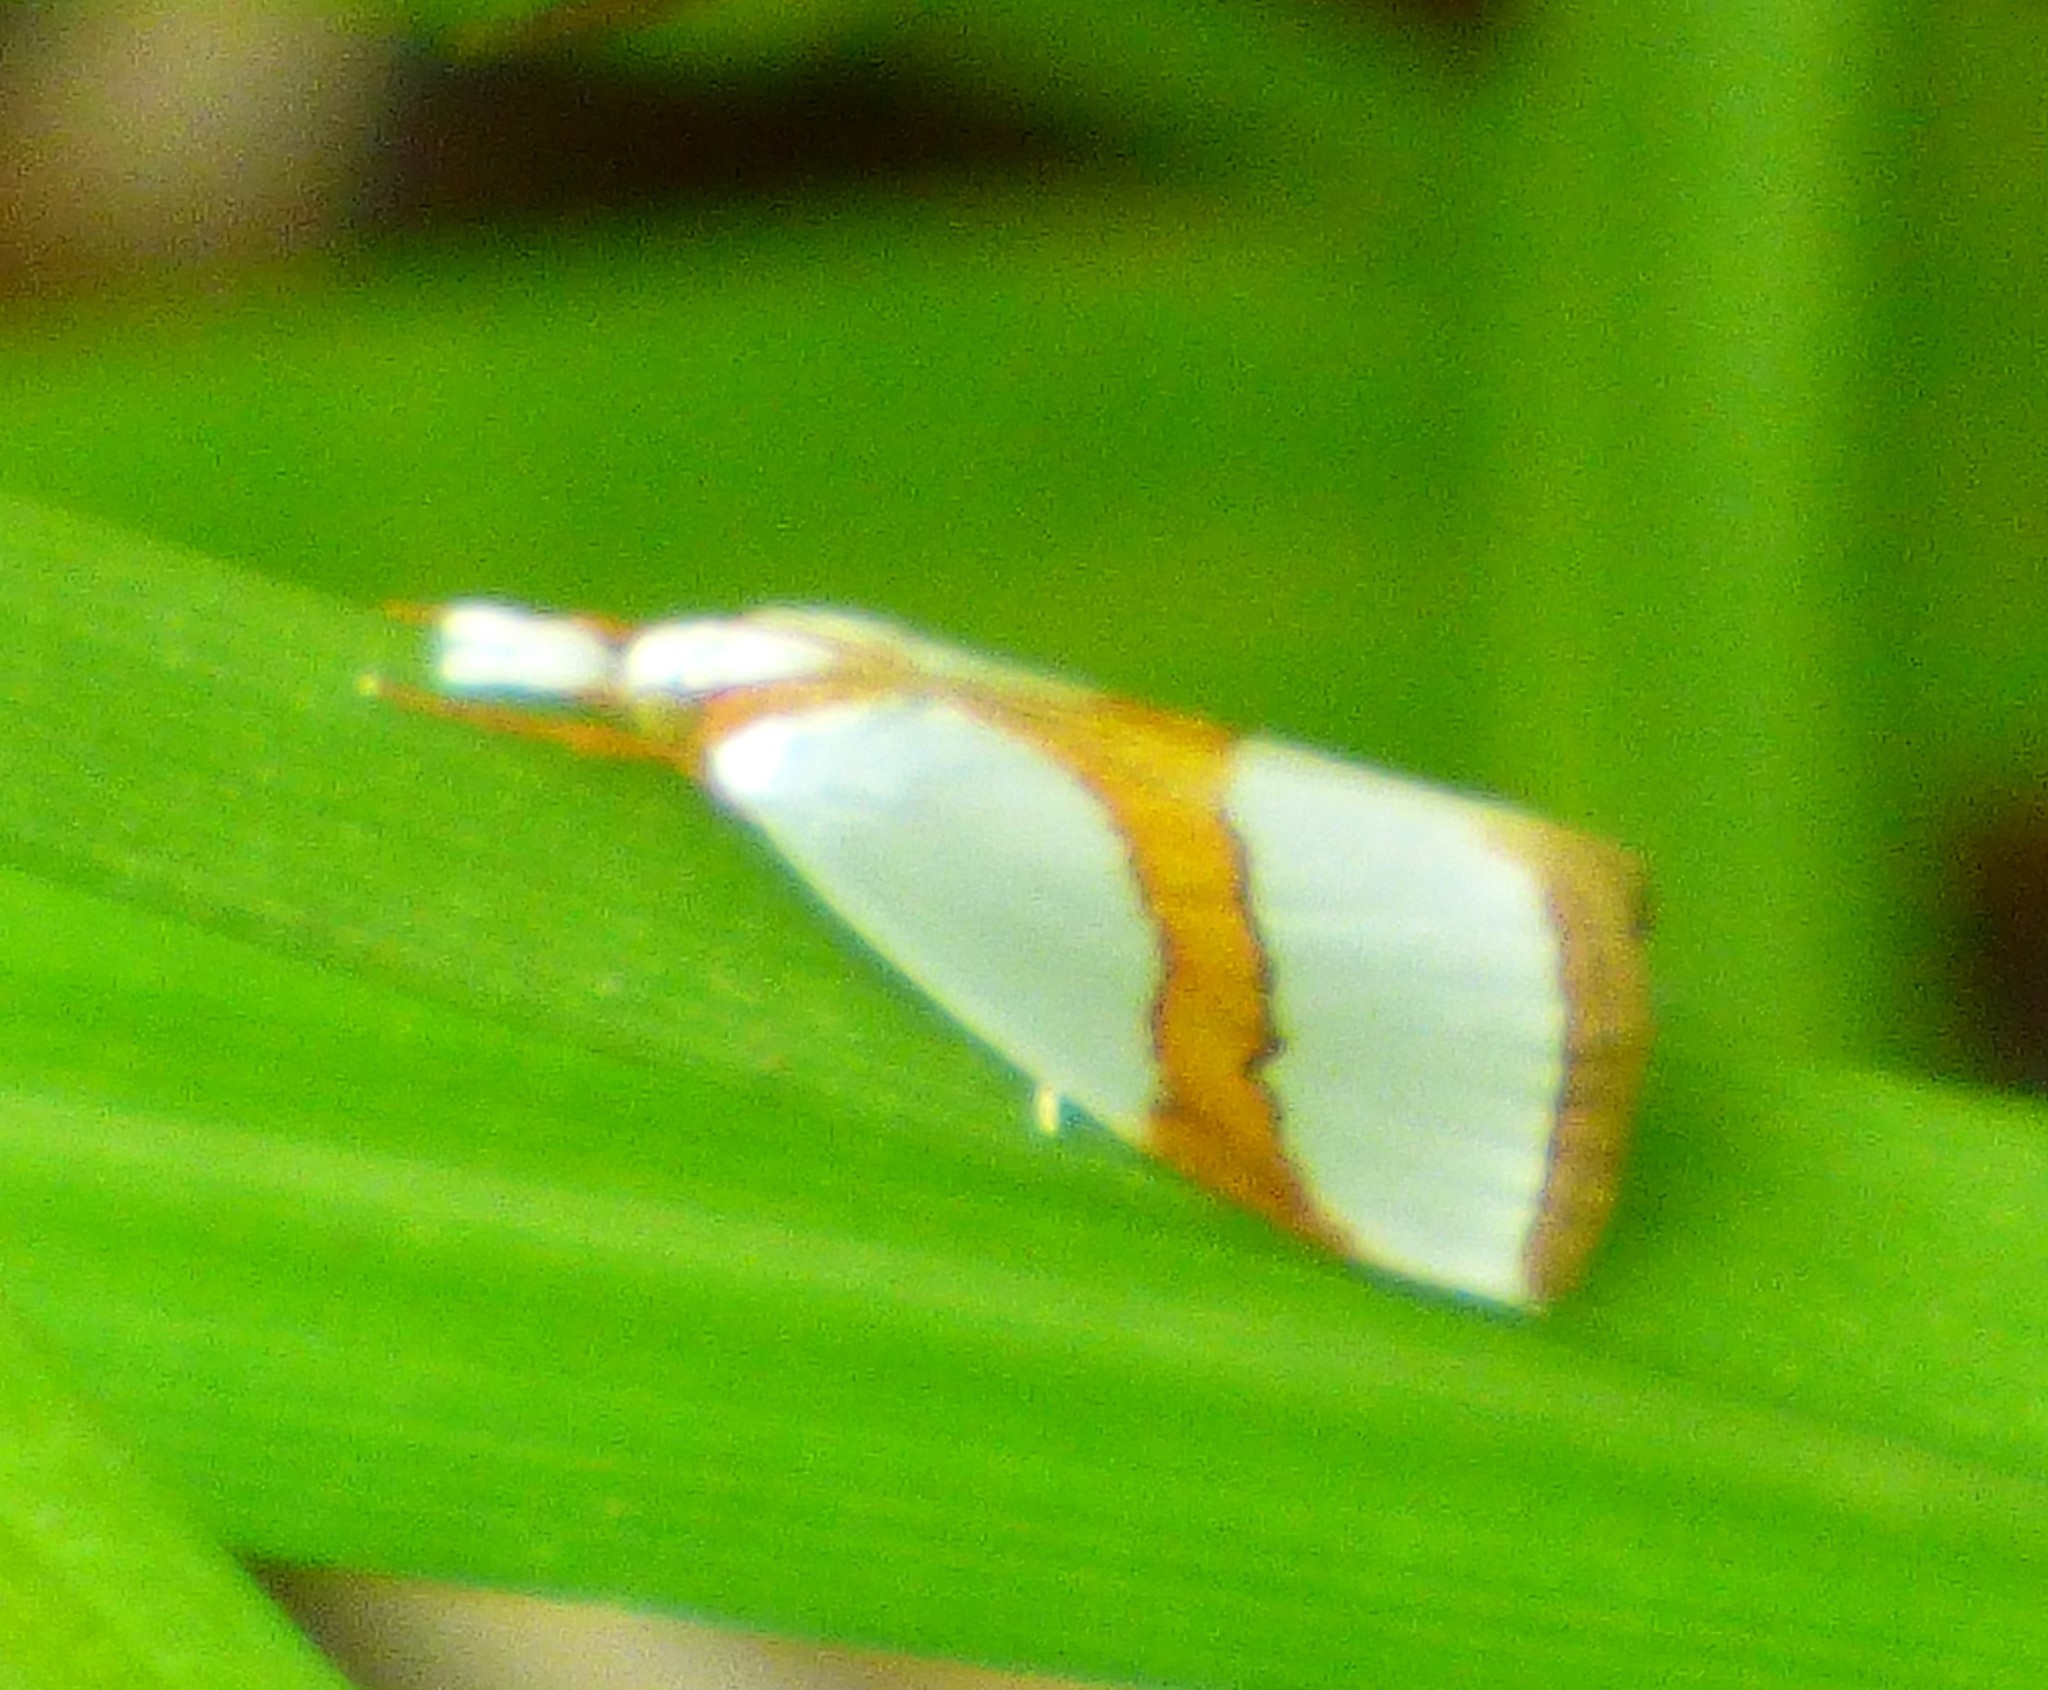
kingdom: Animalia
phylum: Arthropoda
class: Insecta
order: Lepidoptera
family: Crambidae
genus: Vaxi
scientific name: Vaxi critica
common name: Straight-lined vaxi moth
